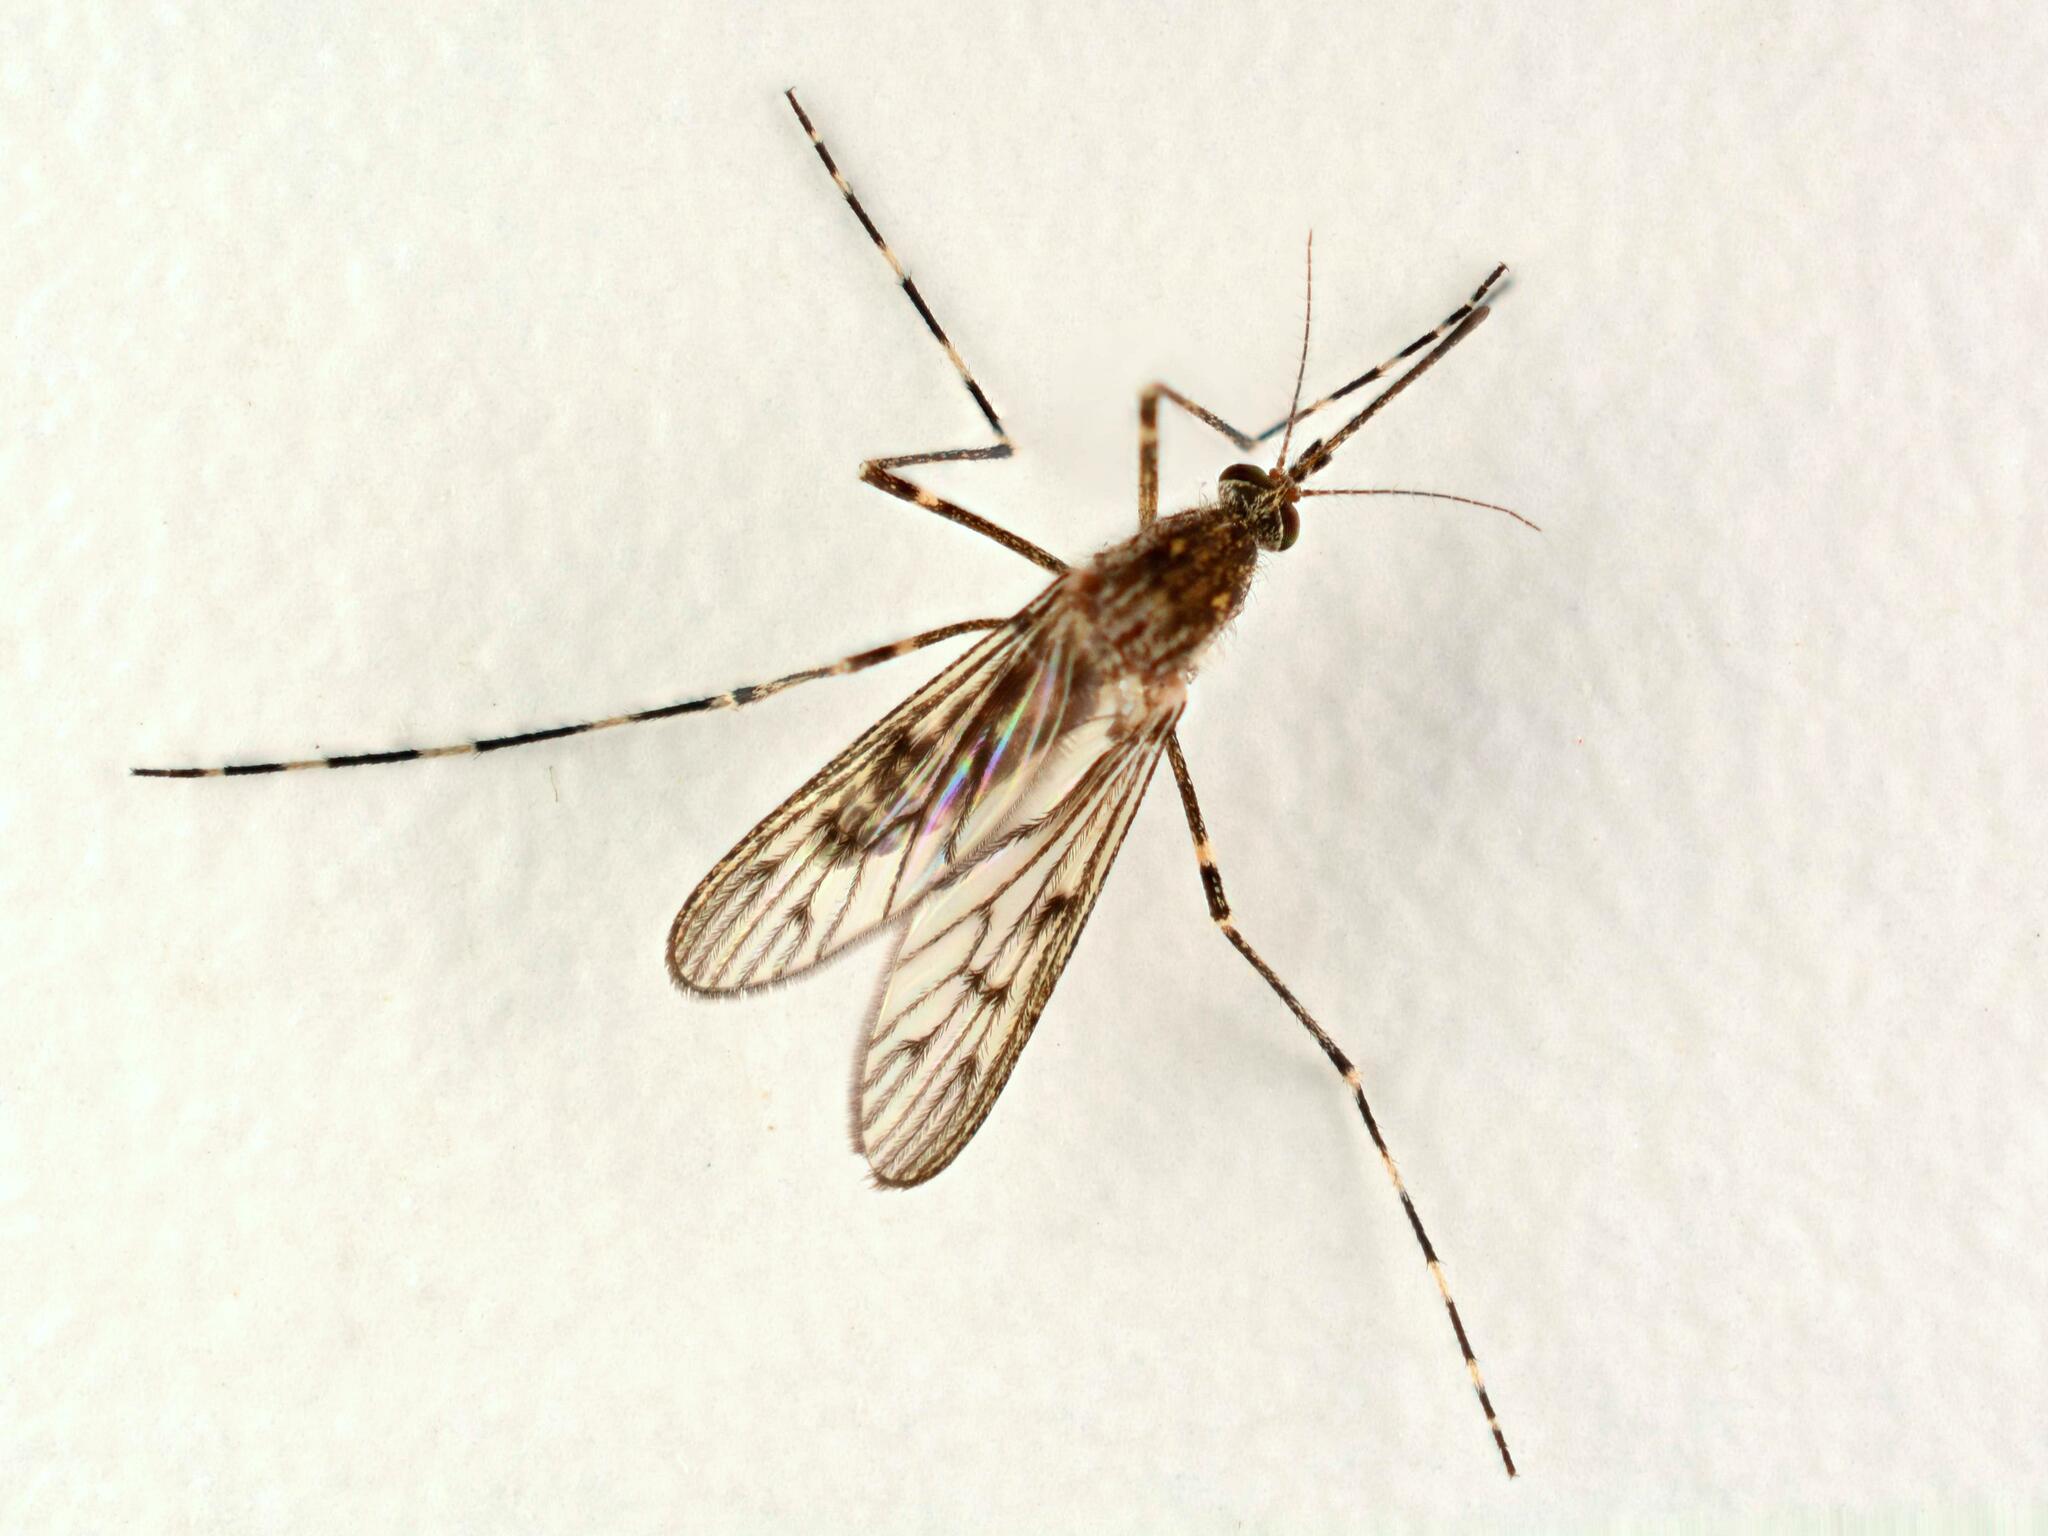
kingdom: Animalia
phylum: Arthropoda
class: Insecta
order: Diptera
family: Culicidae
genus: Culiseta
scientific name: Culiseta annulata
